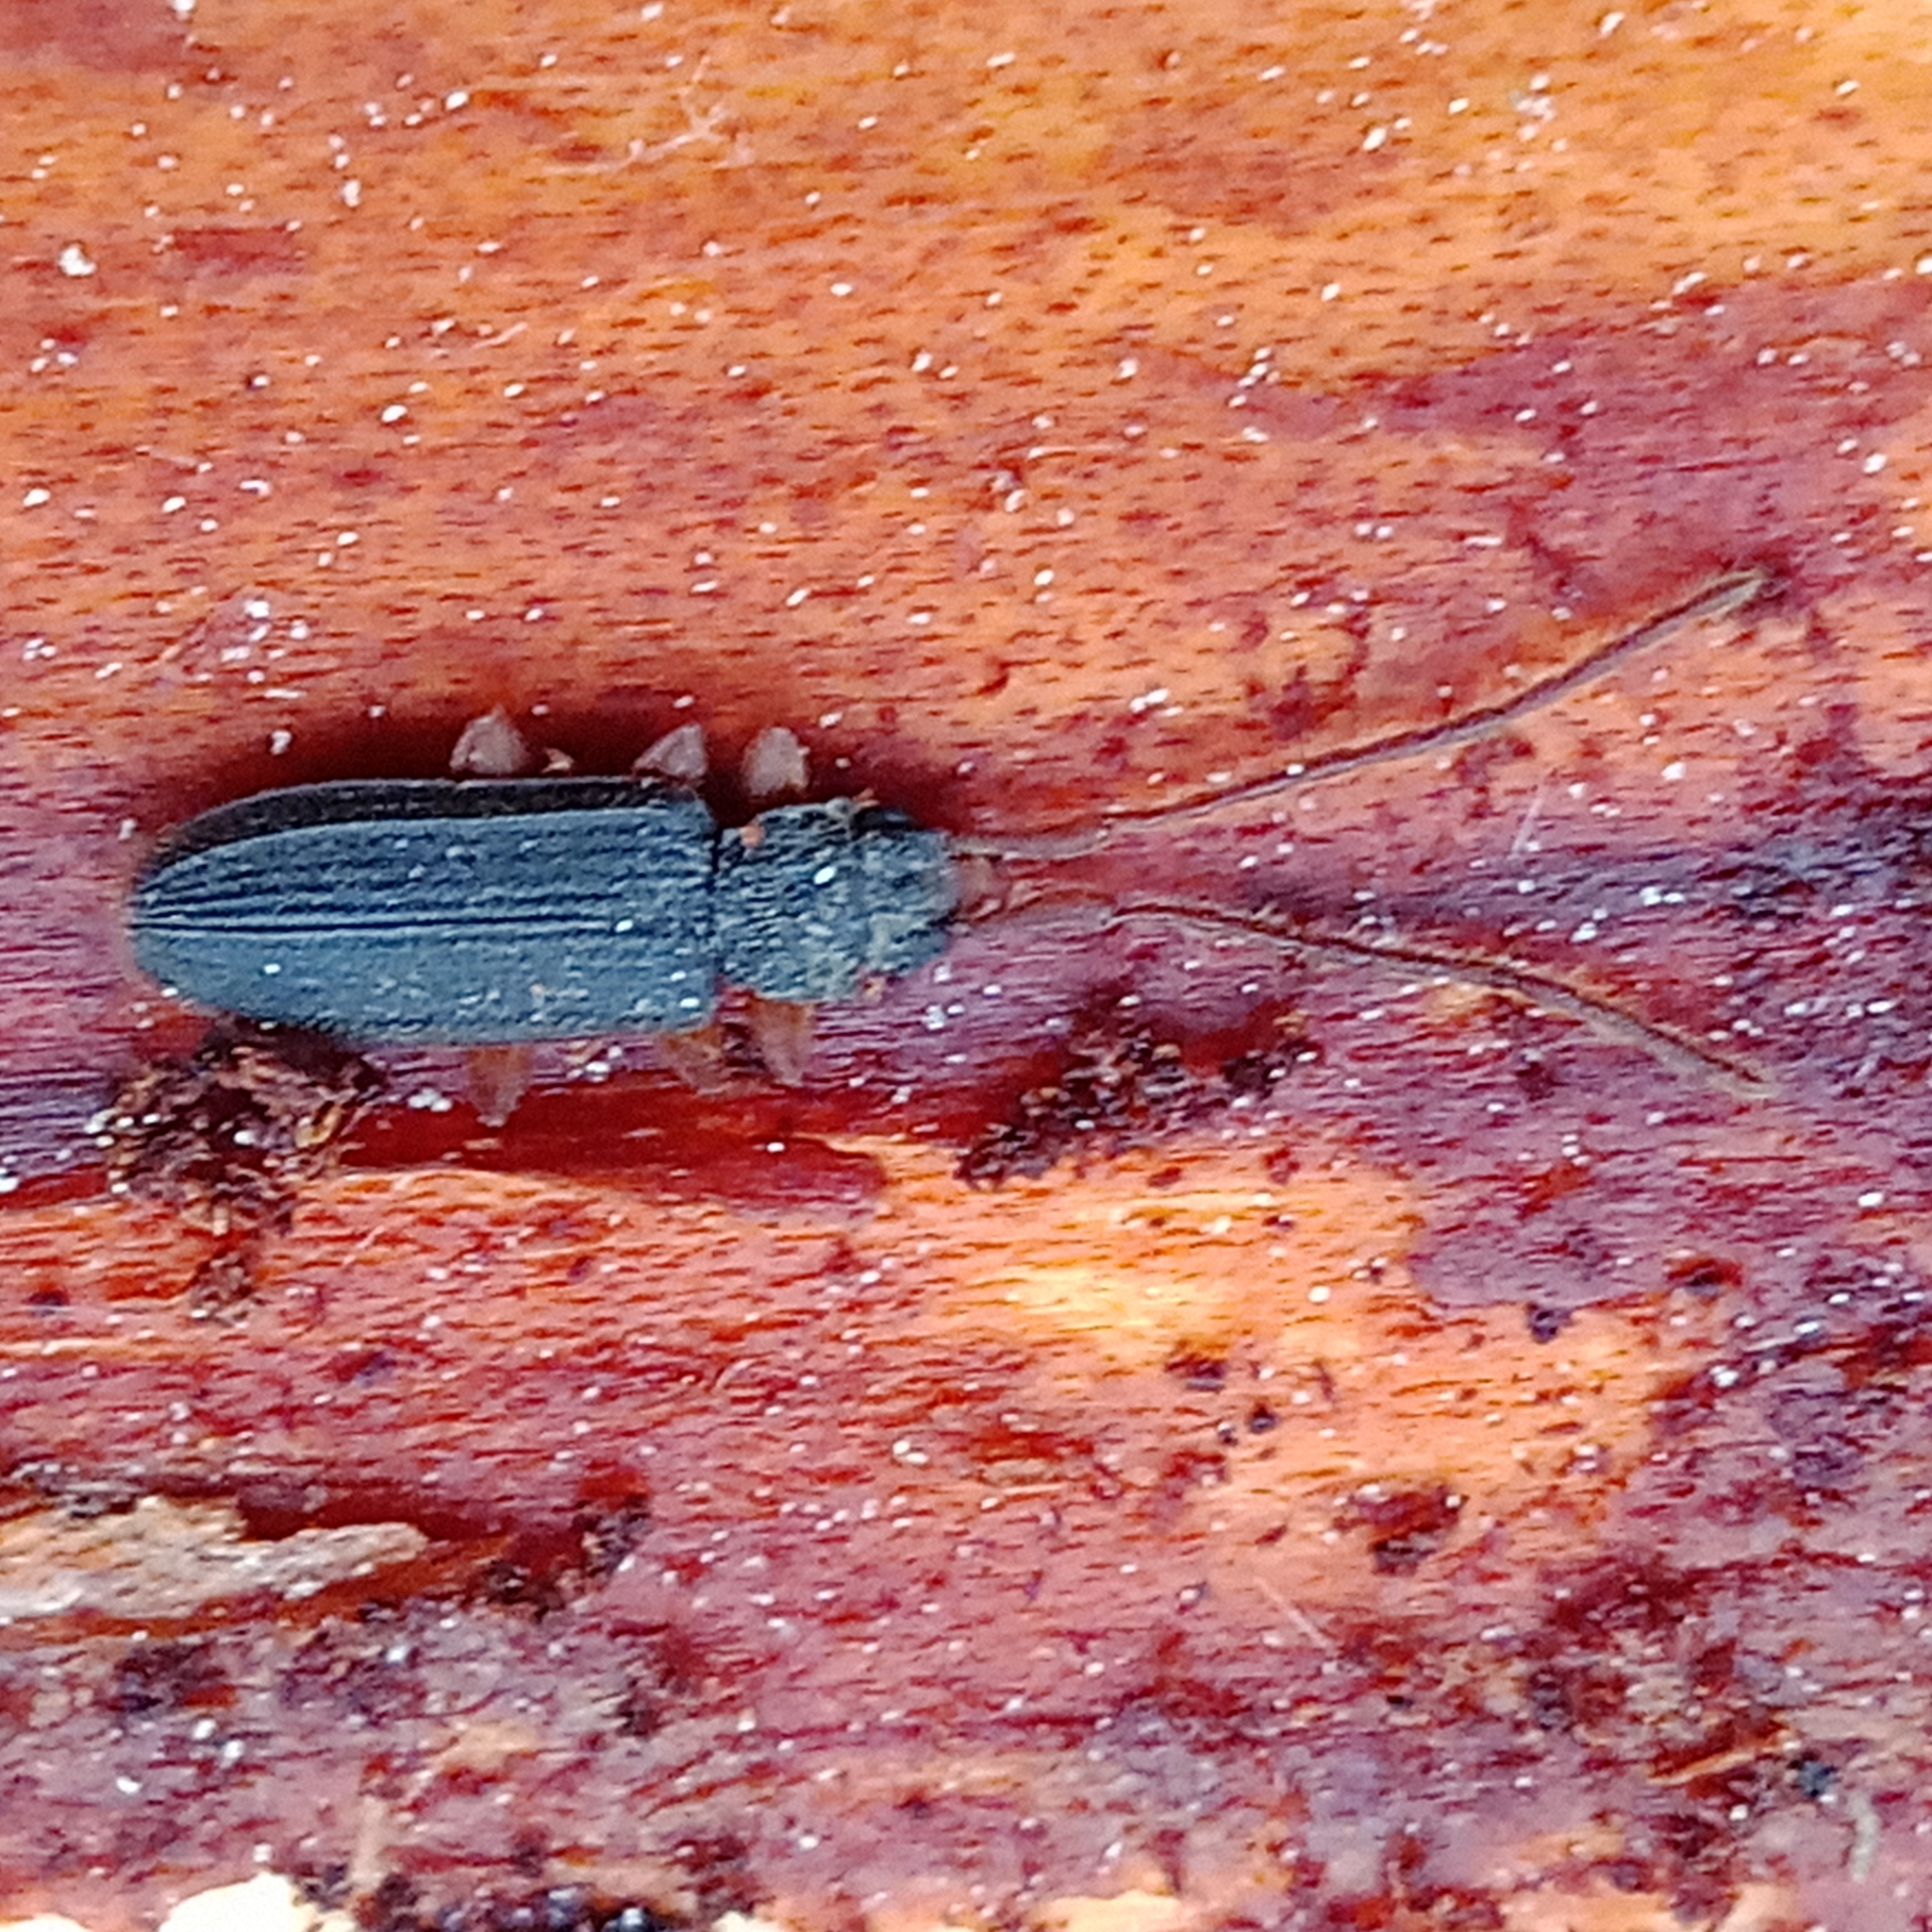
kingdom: Animalia
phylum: Arthropoda
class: Insecta
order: Coleoptera
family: Silvanidae
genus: Uleiota
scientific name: Uleiota planatus
